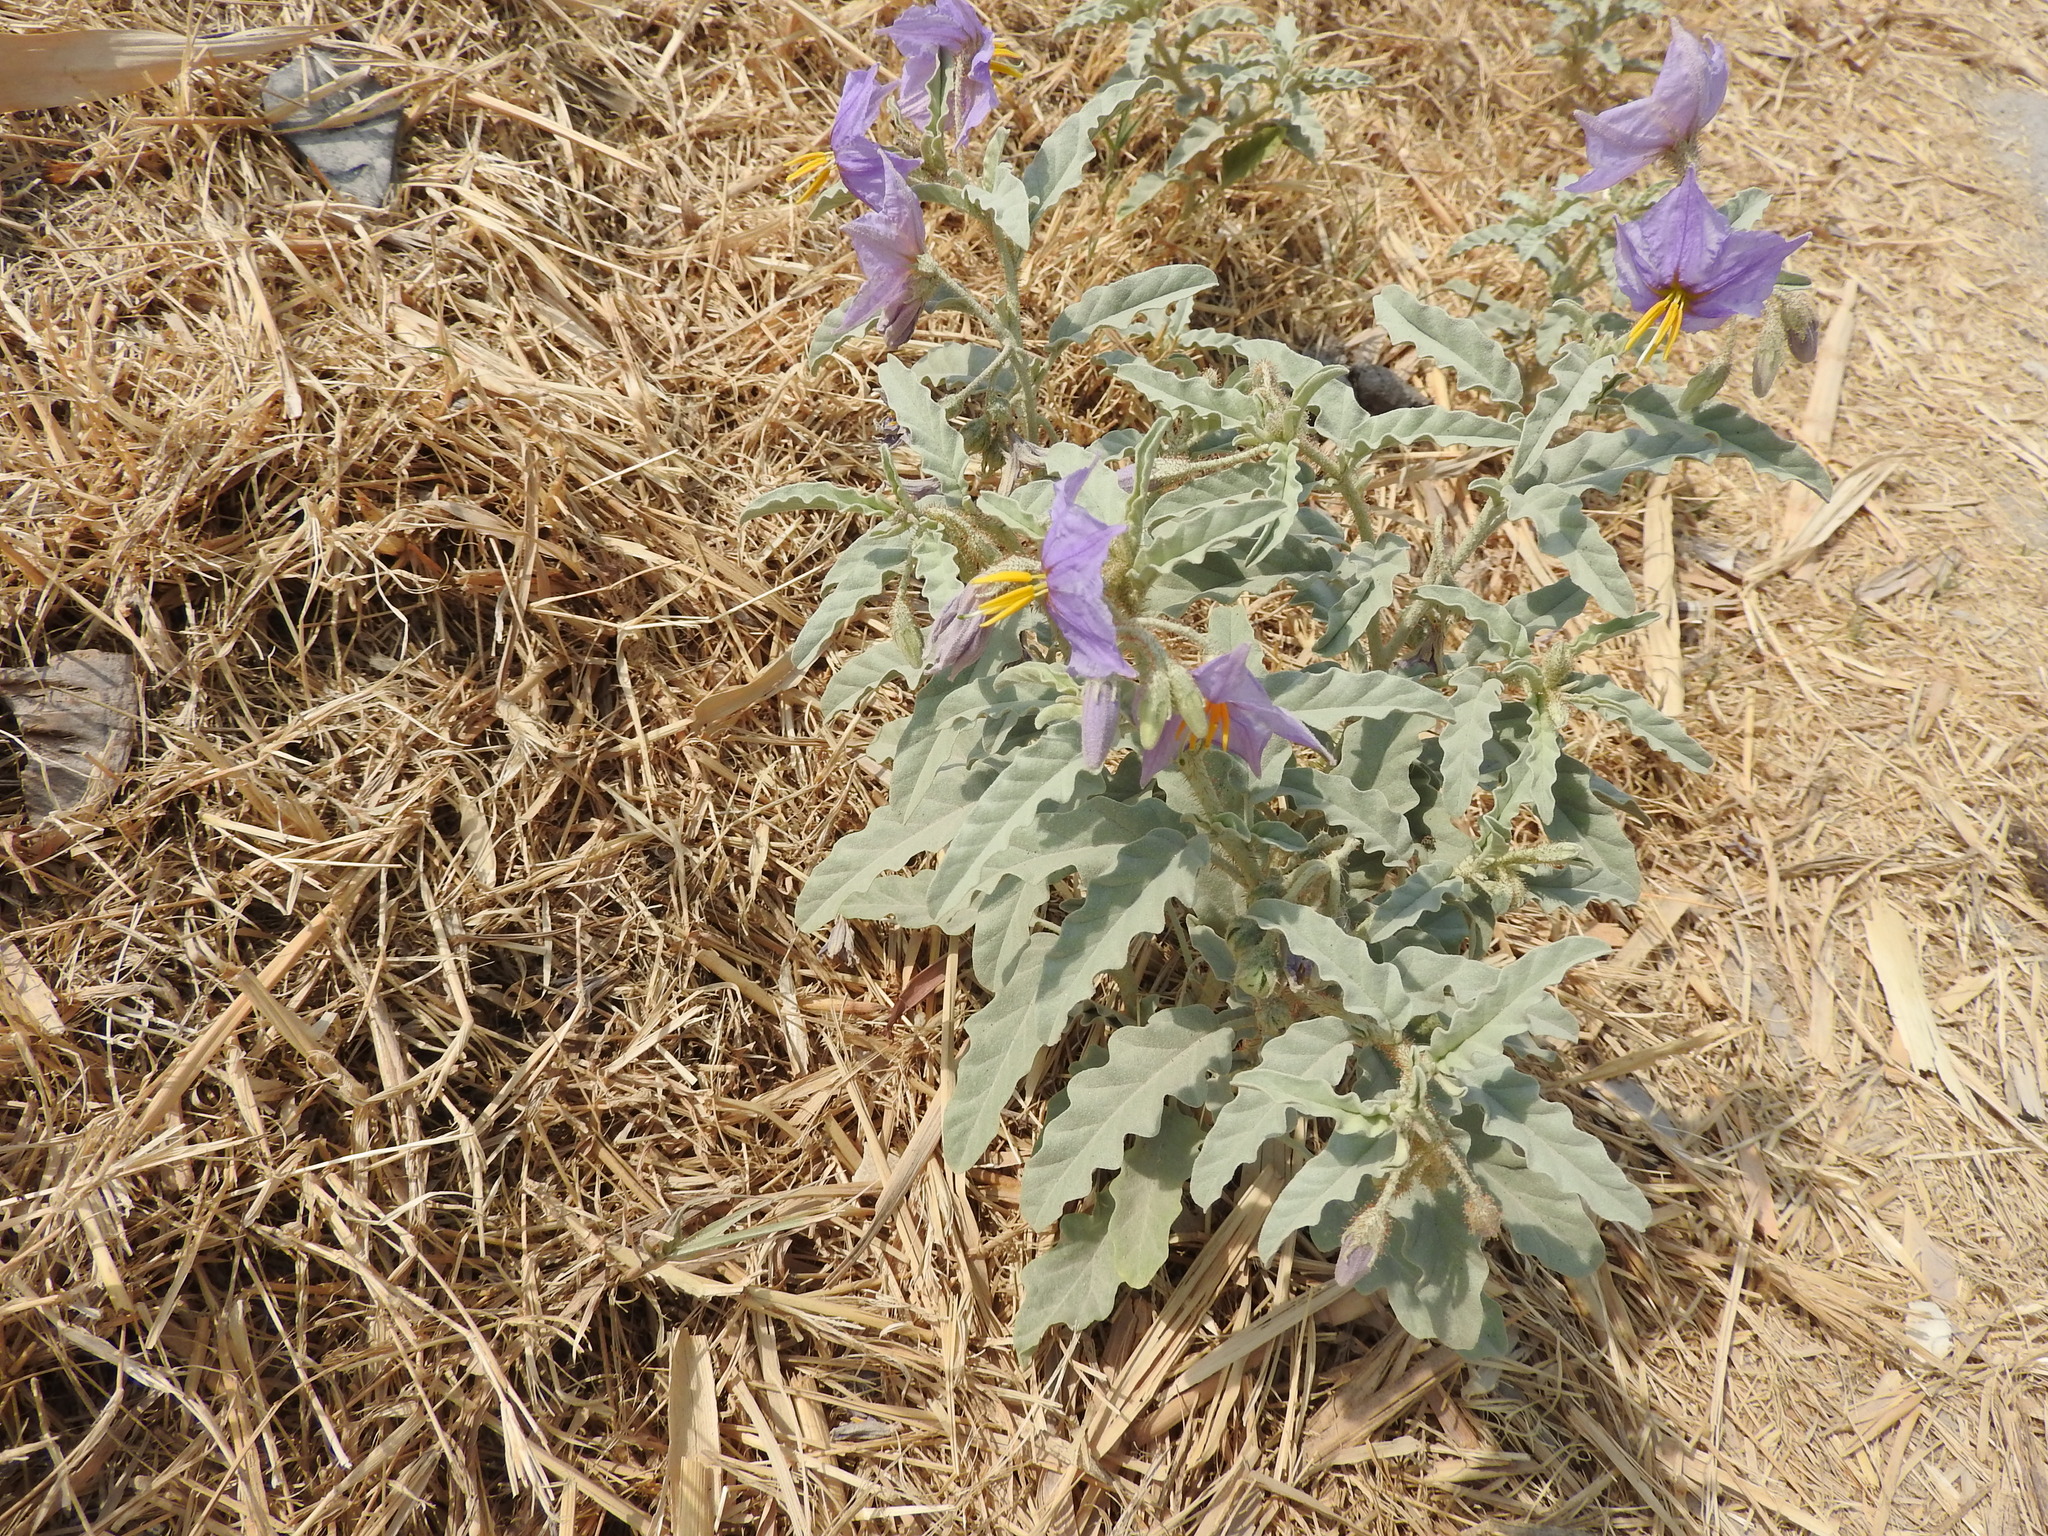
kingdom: Plantae
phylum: Tracheophyta
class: Magnoliopsida
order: Solanales
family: Solanaceae
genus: Solanum
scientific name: Solanum elaeagnifolium
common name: Silverleaf nightshade
